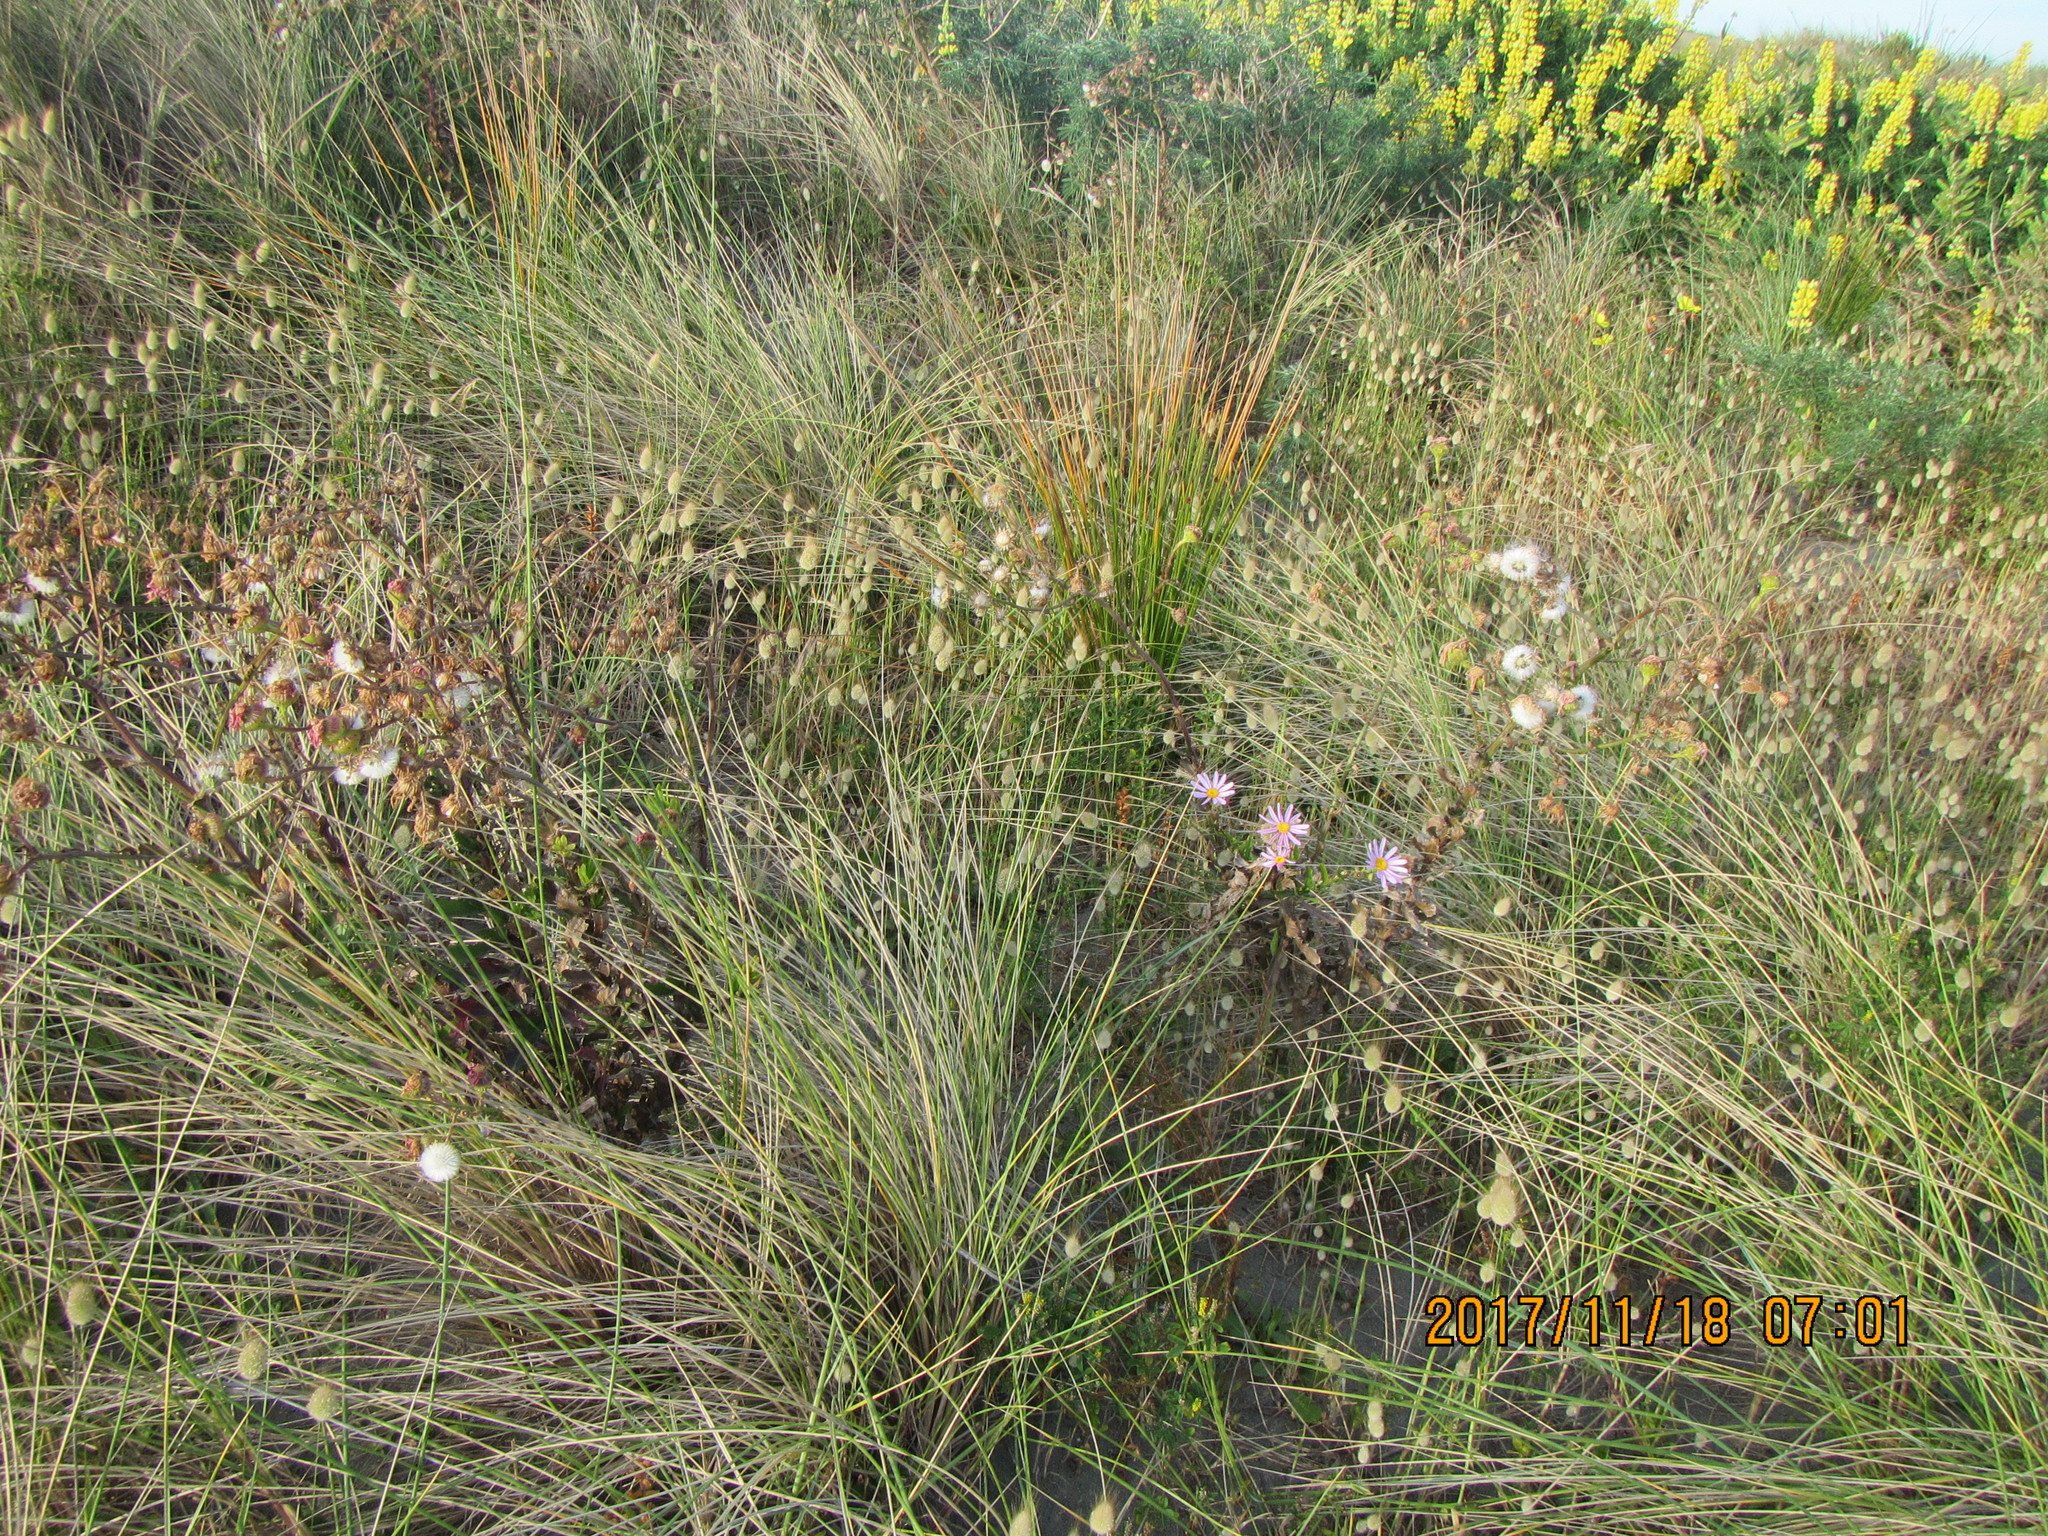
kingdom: Plantae
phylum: Tracheophyta
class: Magnoliopsida
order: Asterales
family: Asteraceae
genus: Senecio
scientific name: Senecio glastifolius
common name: Woad-leaved ragwort
